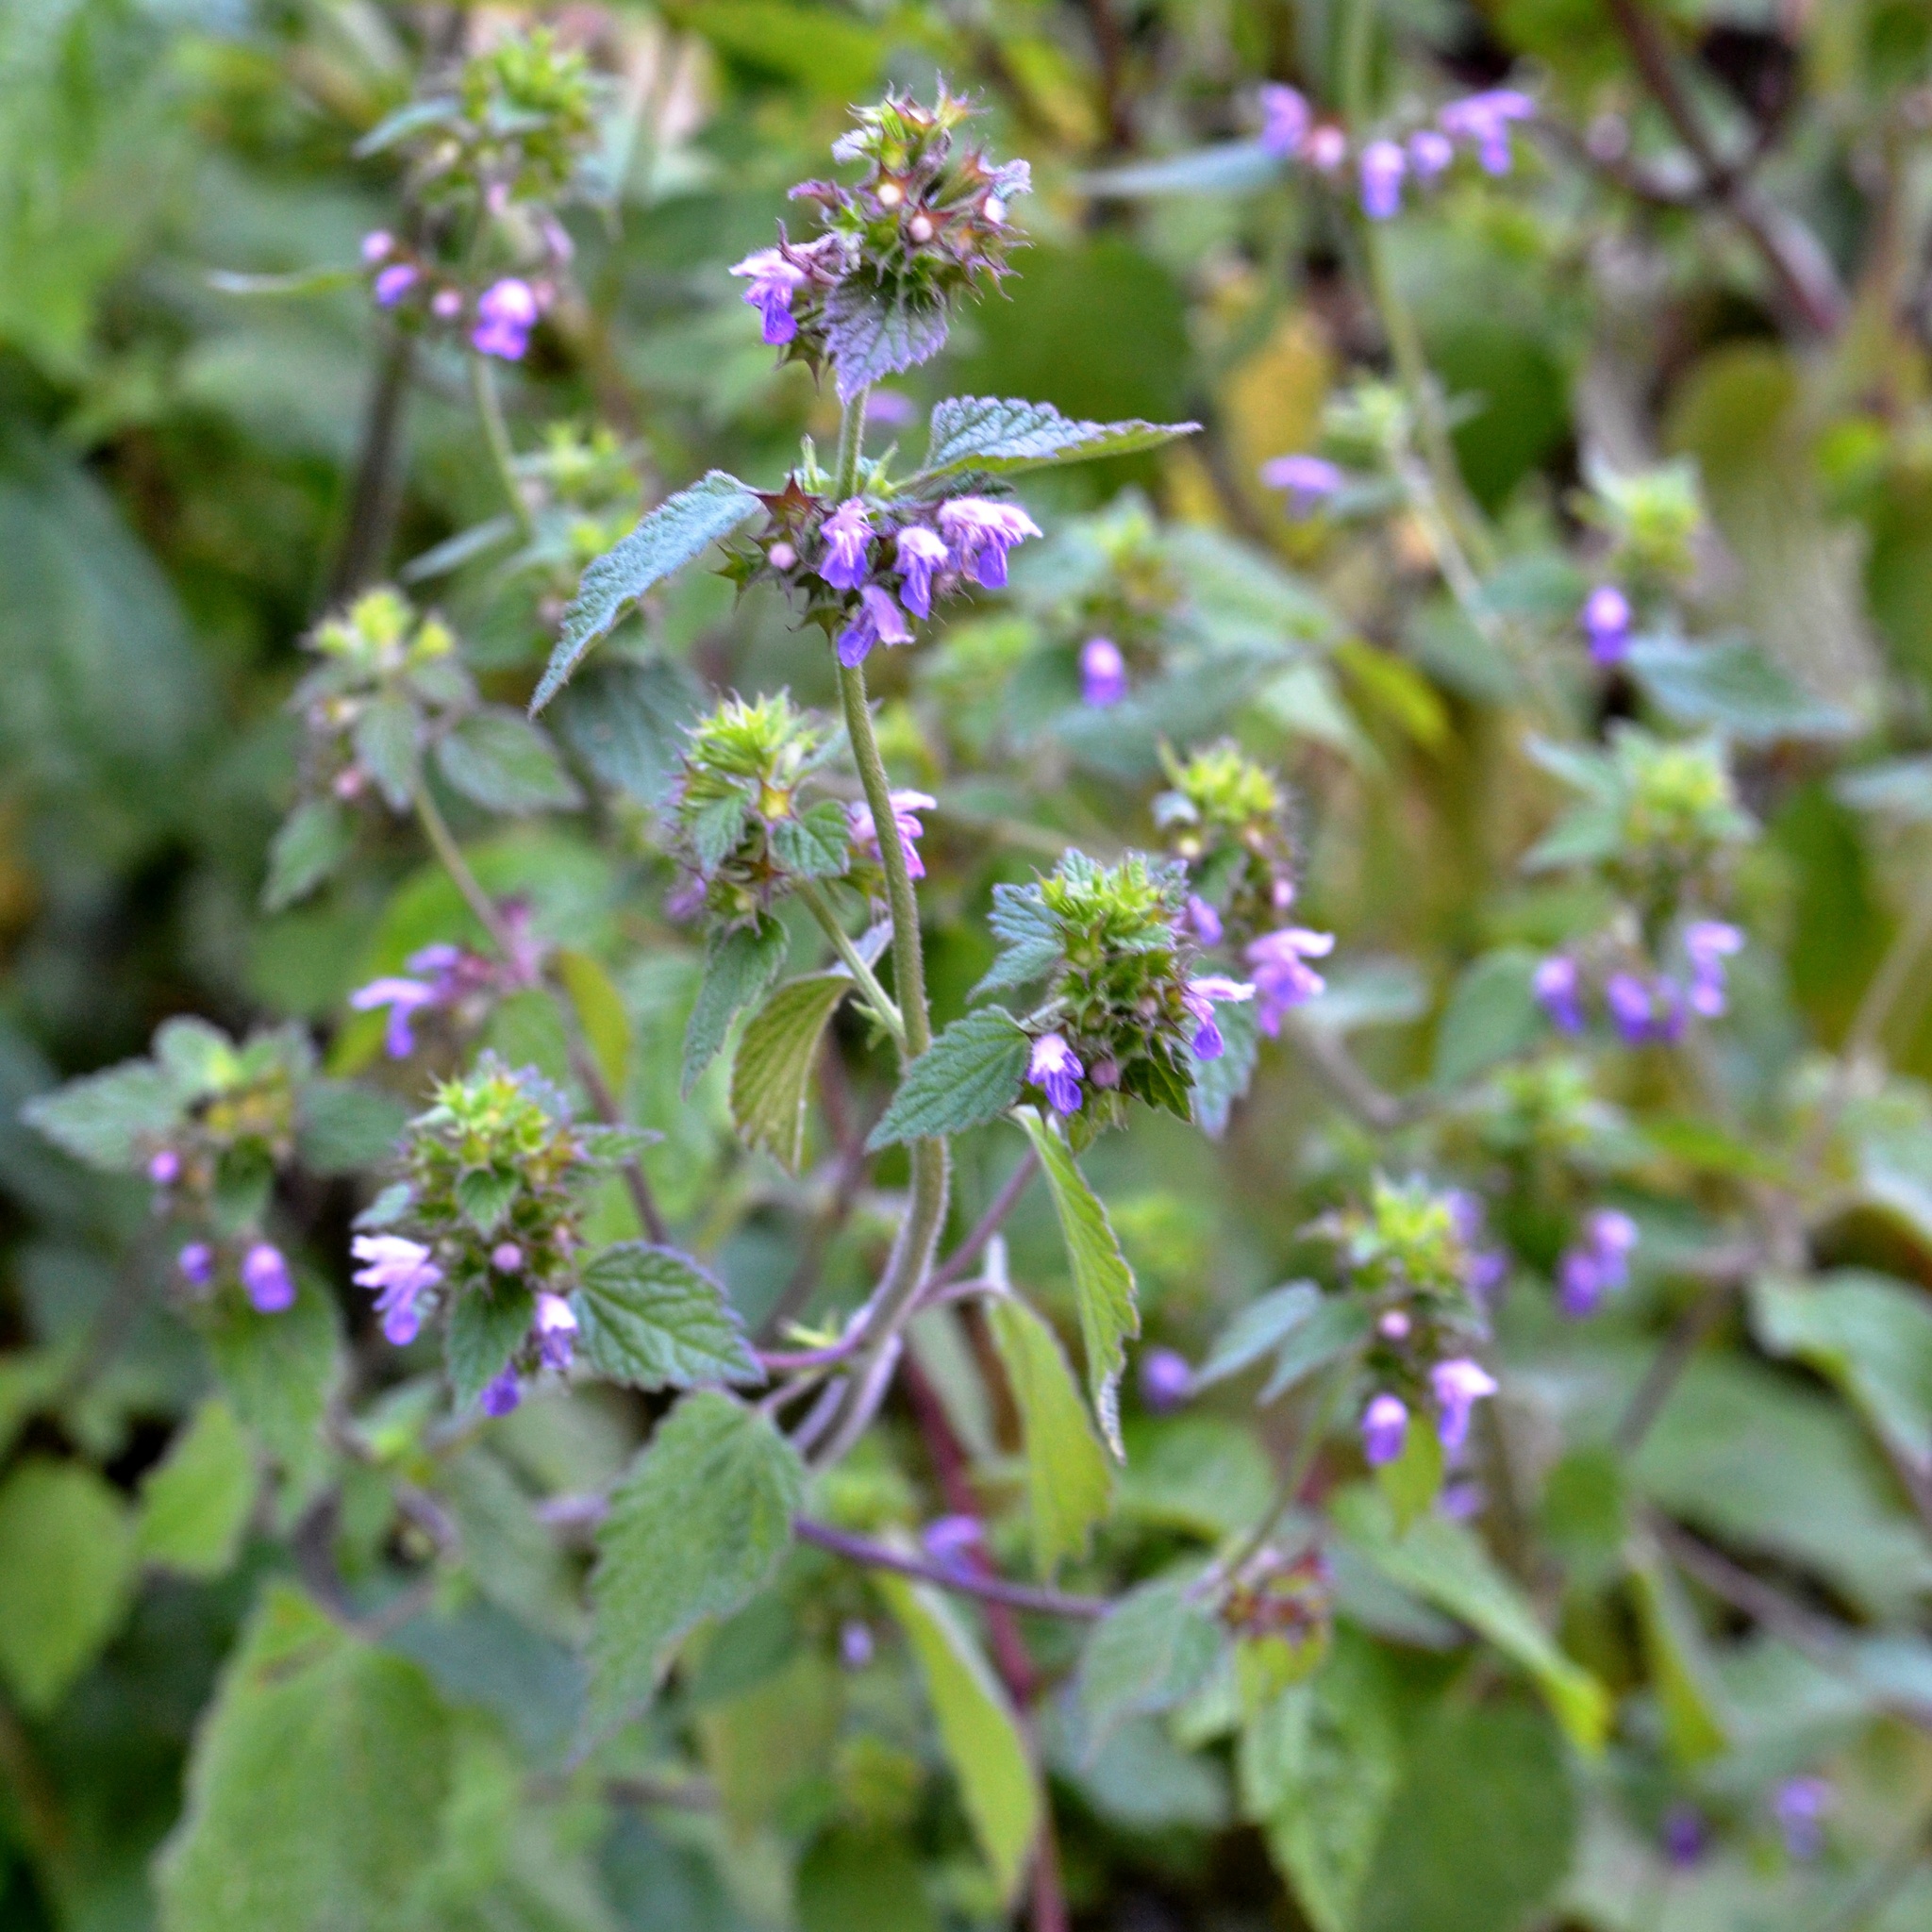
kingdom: Plantae
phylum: Tracheophyta
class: Magnoliopsida
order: Lamiales
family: Lamiaceae
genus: Ballota
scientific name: Ballota nigra
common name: Black horehound
